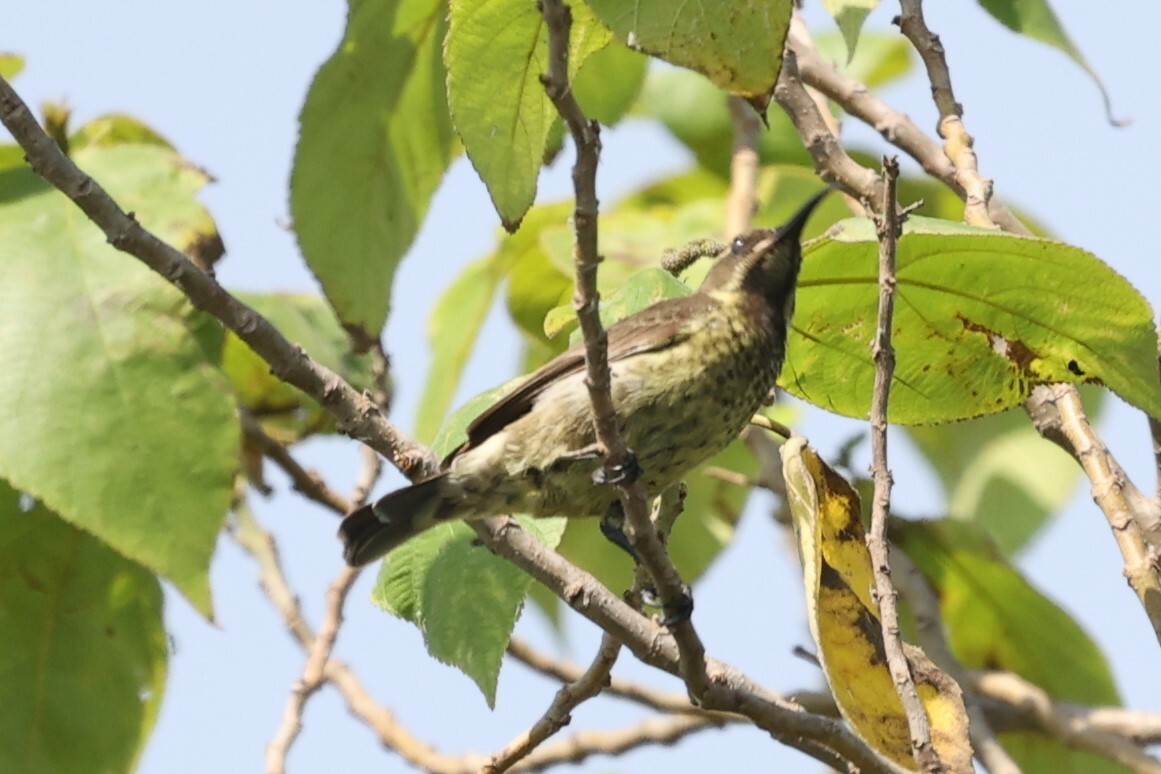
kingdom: Animalia
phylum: Chordata
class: Aves
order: Passeriformes
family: Nectariniidae
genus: Chalcomitra
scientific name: Chalcomitra senegalensis
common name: Scarlet-chested sunbird
